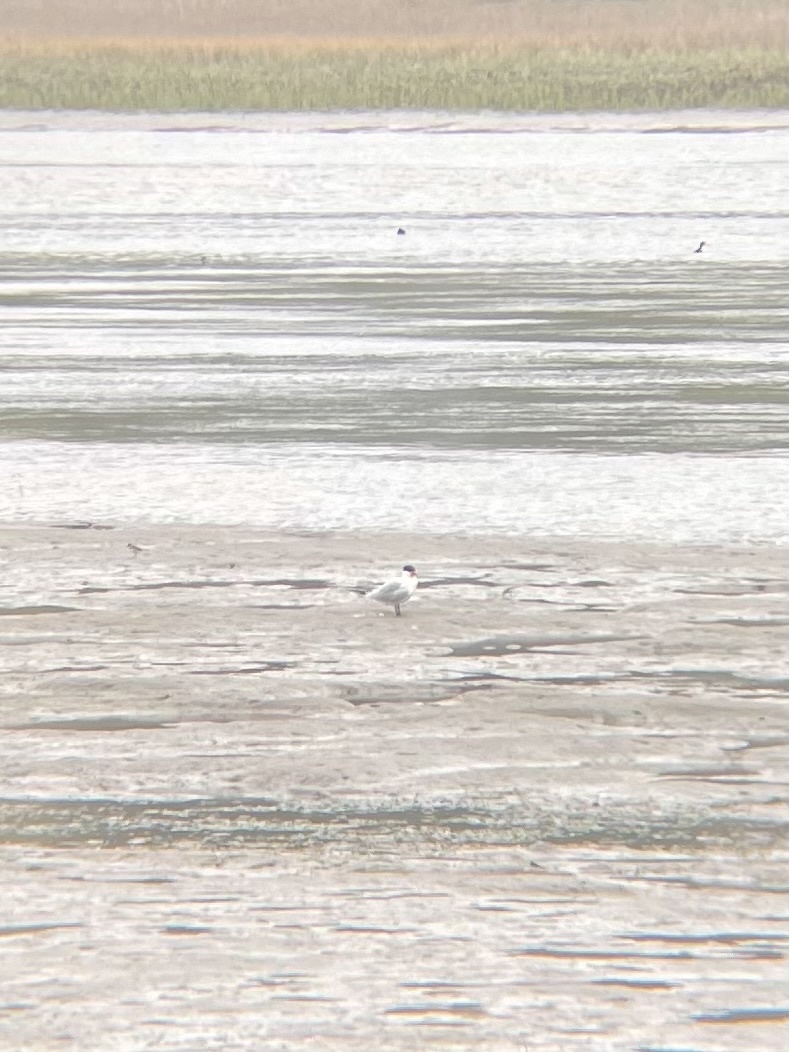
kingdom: Animalia
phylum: Chordata
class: Aves
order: Charadriiformes
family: Laridae
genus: Hydroprogne
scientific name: Hydroprogne caspia
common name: Caspian tern
